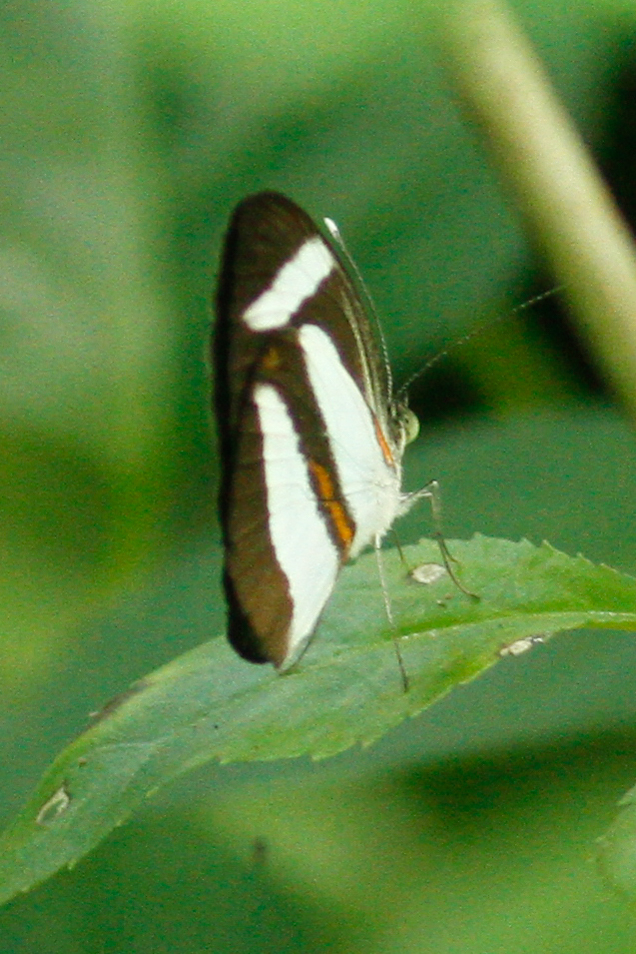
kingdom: Animalia
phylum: Arthropoda
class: Insecta
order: Lepidoptera
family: Pieridae
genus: Itaballia
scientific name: Itaballia marana
